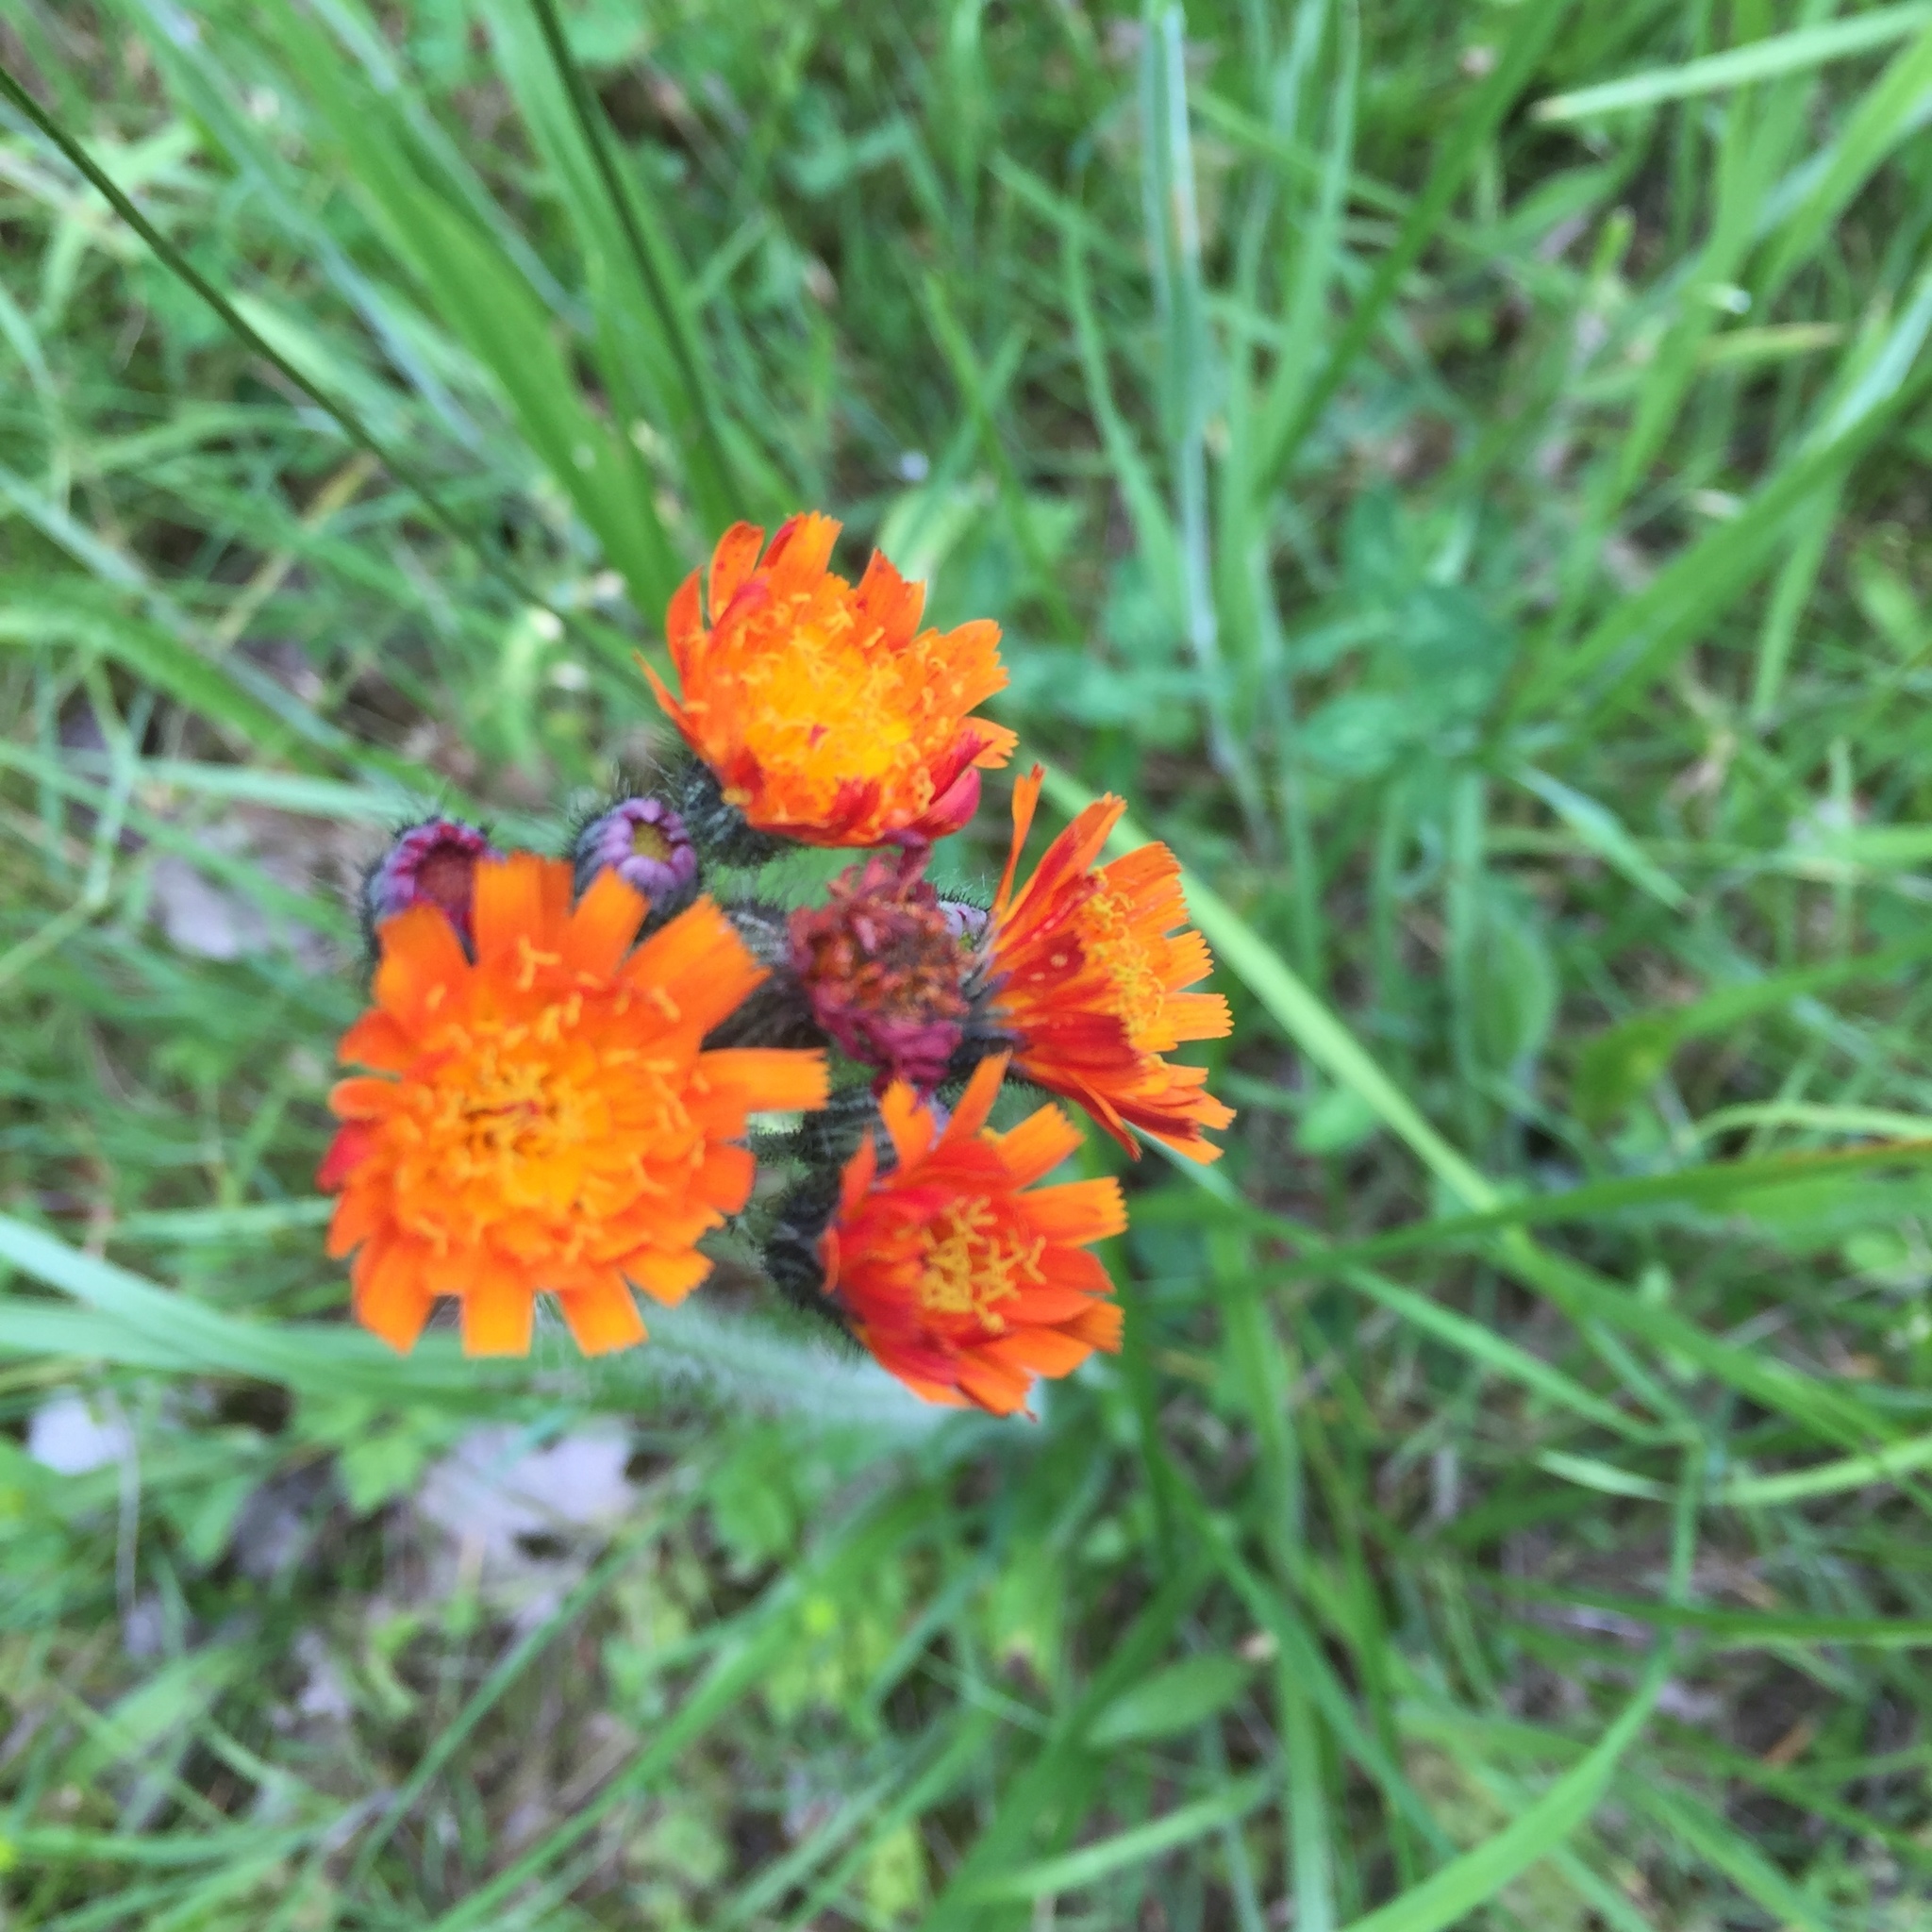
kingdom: Plantae
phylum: Tracheophyta
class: Magnoliopsida
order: Asterales
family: Asteraceae
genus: Pilosella
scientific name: Pilosella aurantiaca
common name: Fox-and-cubs
